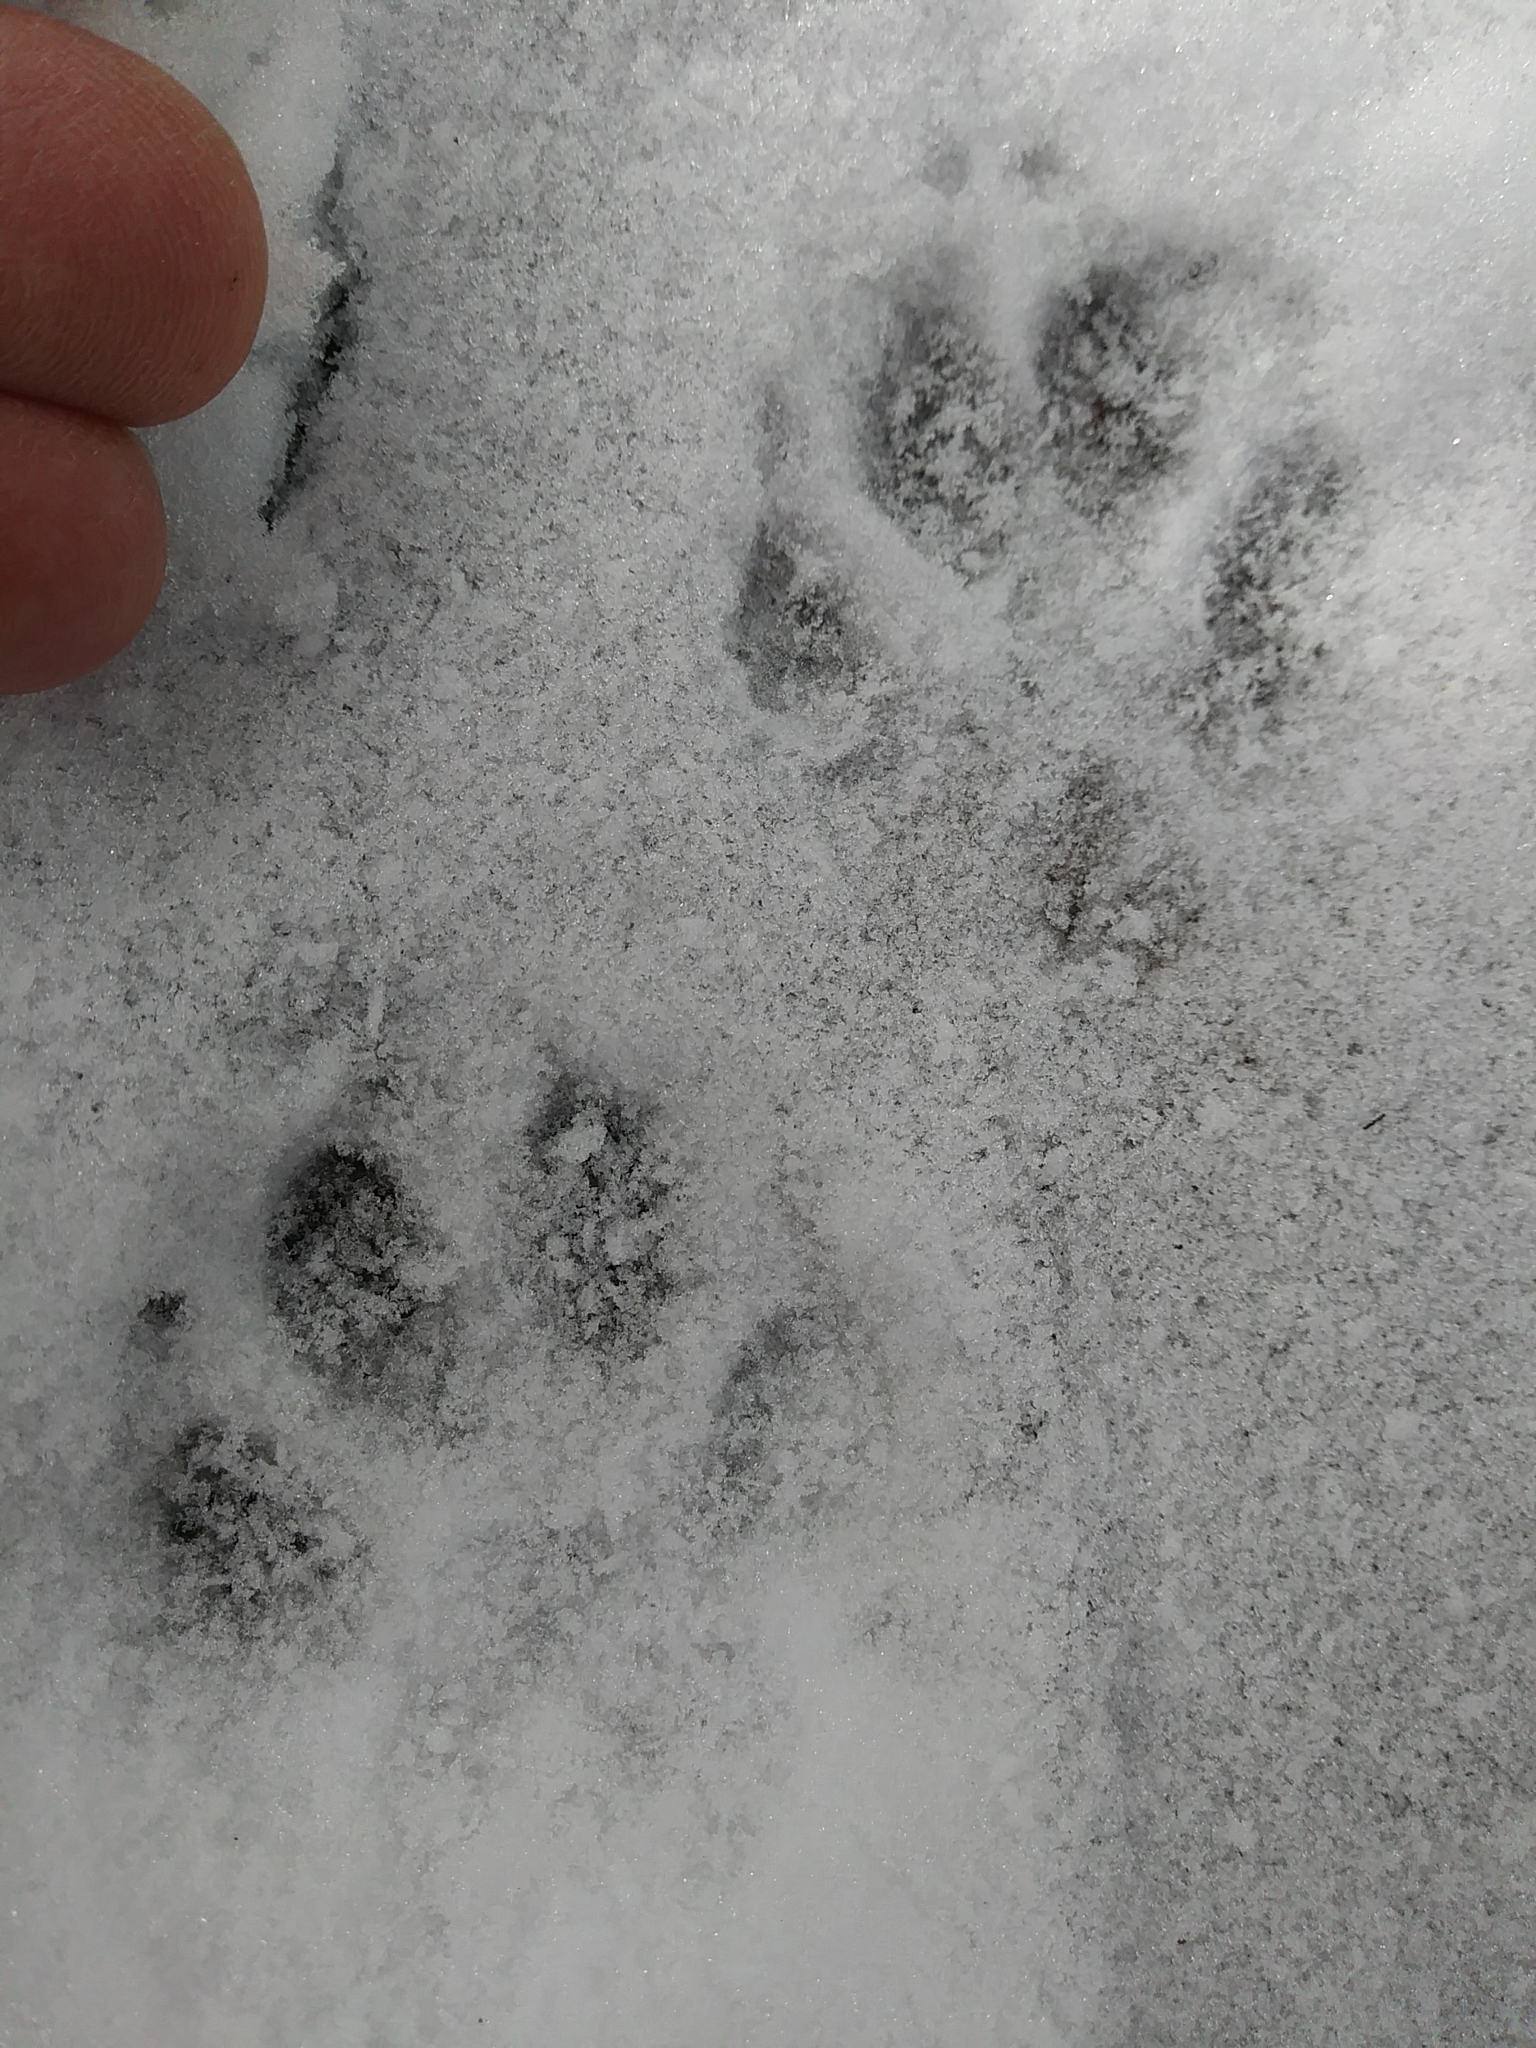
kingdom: Animalia
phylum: Chordata
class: Mammalia
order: Carnivora
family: Canidae
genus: Urocyon
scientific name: Urocyon cinereoargenteus
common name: Gray fox
